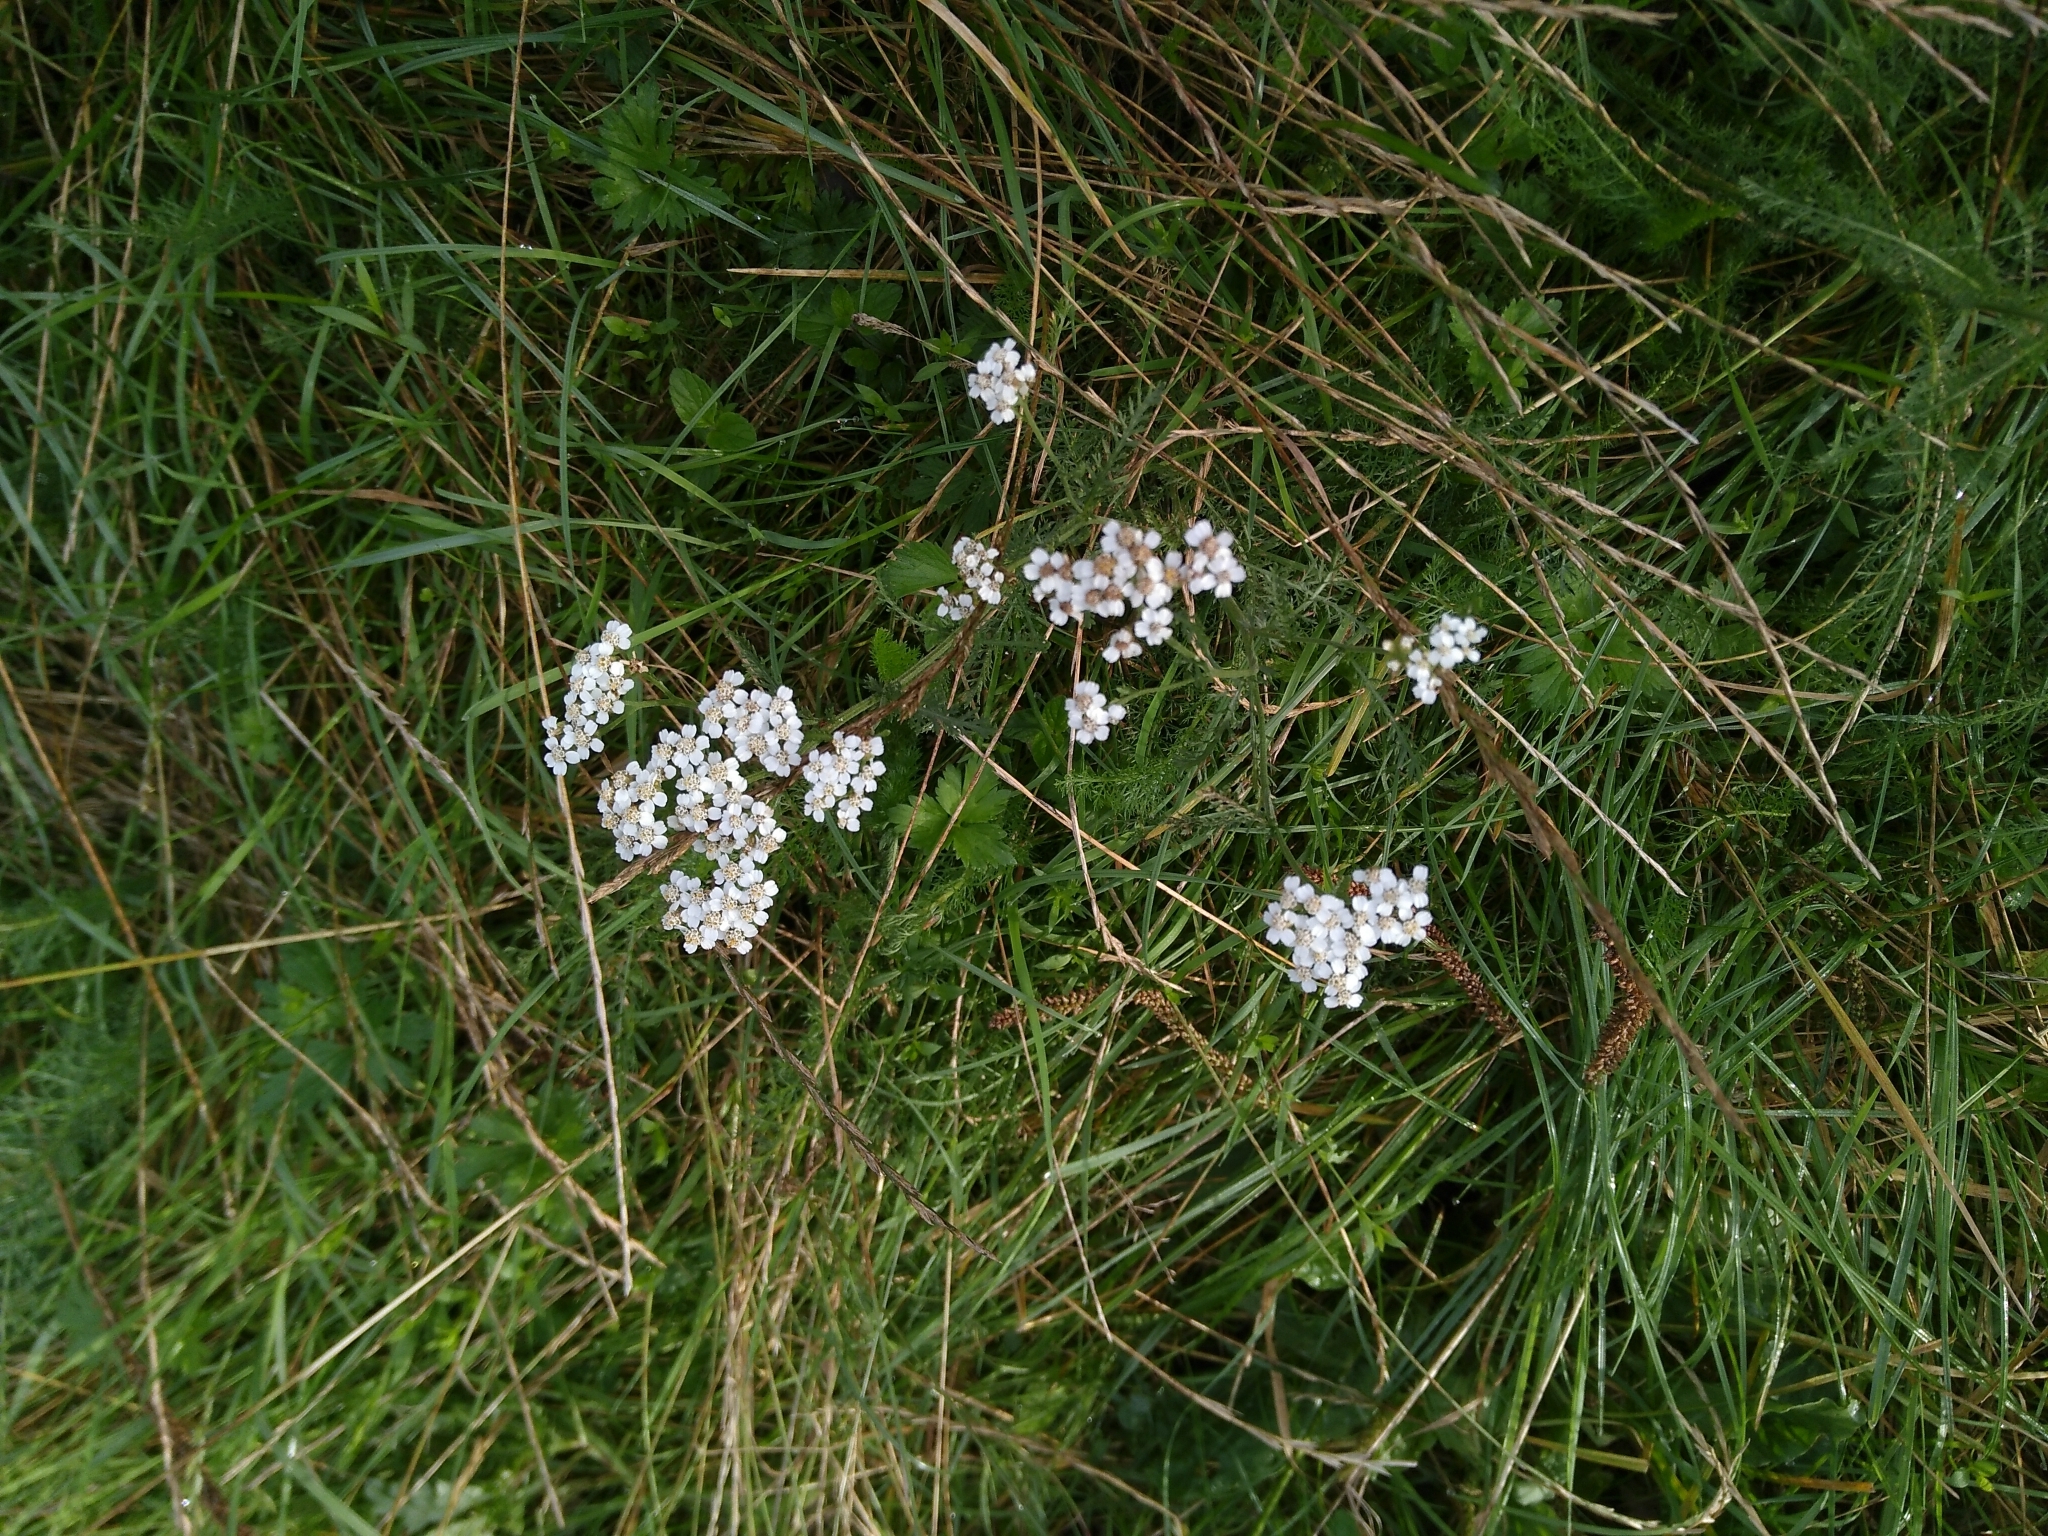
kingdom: Plantae
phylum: Tracheophyta
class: Magnoliopsida
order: Asterales
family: Asteraceae
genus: Achillea
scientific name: Achillea millefolium
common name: Yarrow
